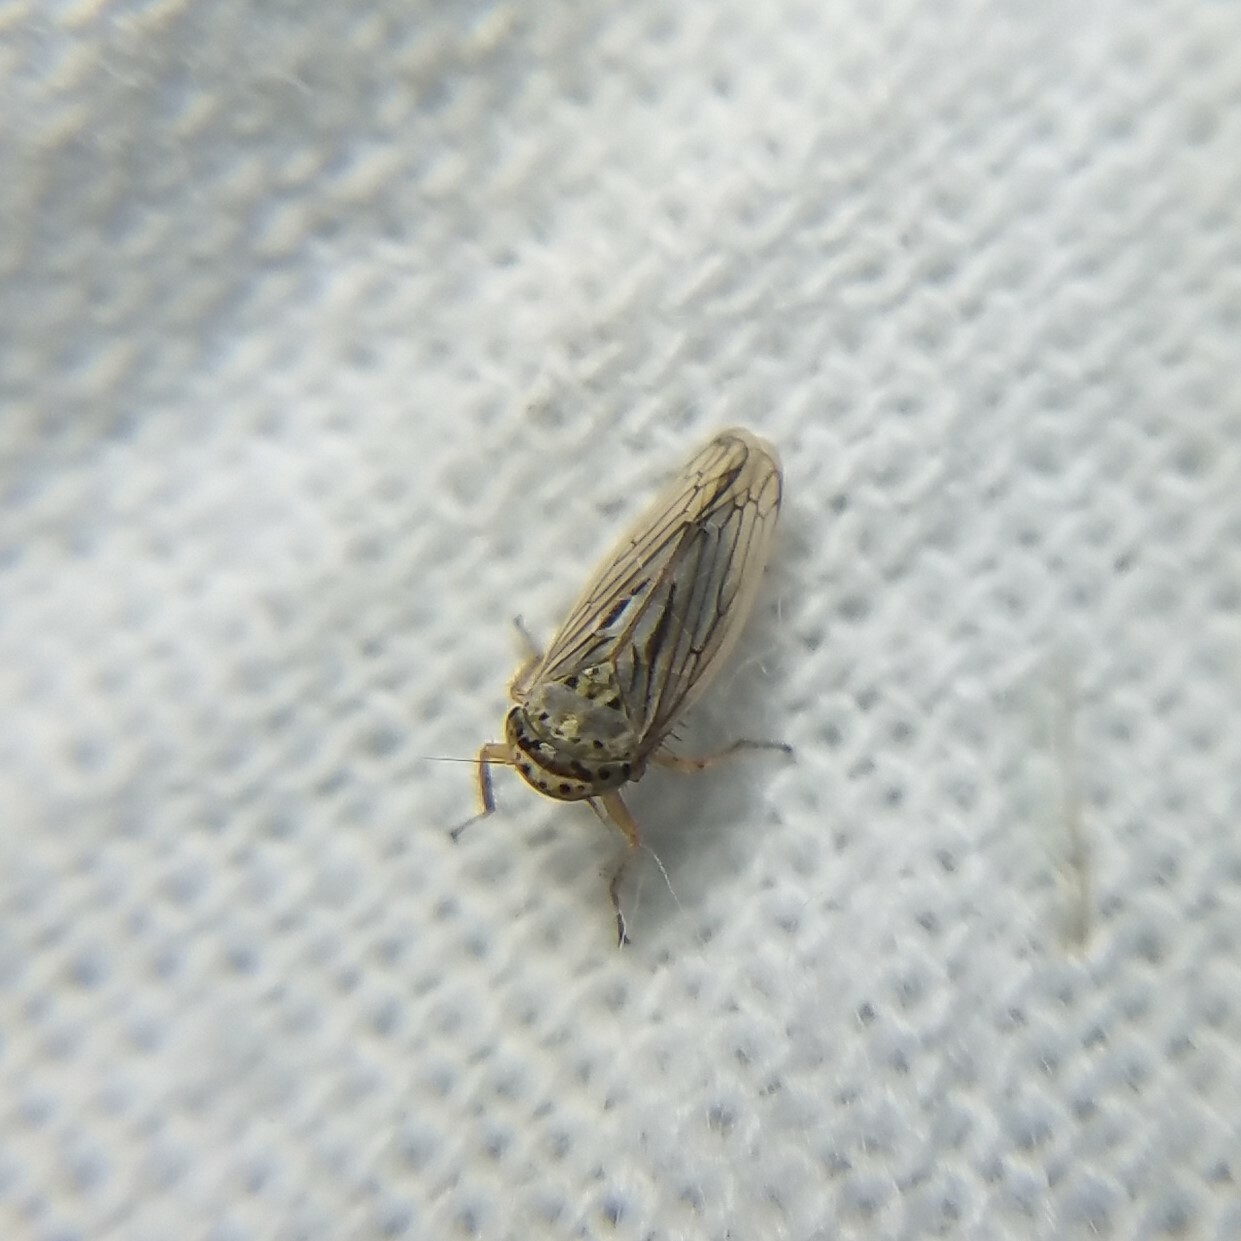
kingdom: Animalia
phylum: Arthropoda
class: Insecta
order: Hemiptera
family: Cicadellidae
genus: Exitianus
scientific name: Exitianus exitiosus
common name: Gray lawn leafhopper
